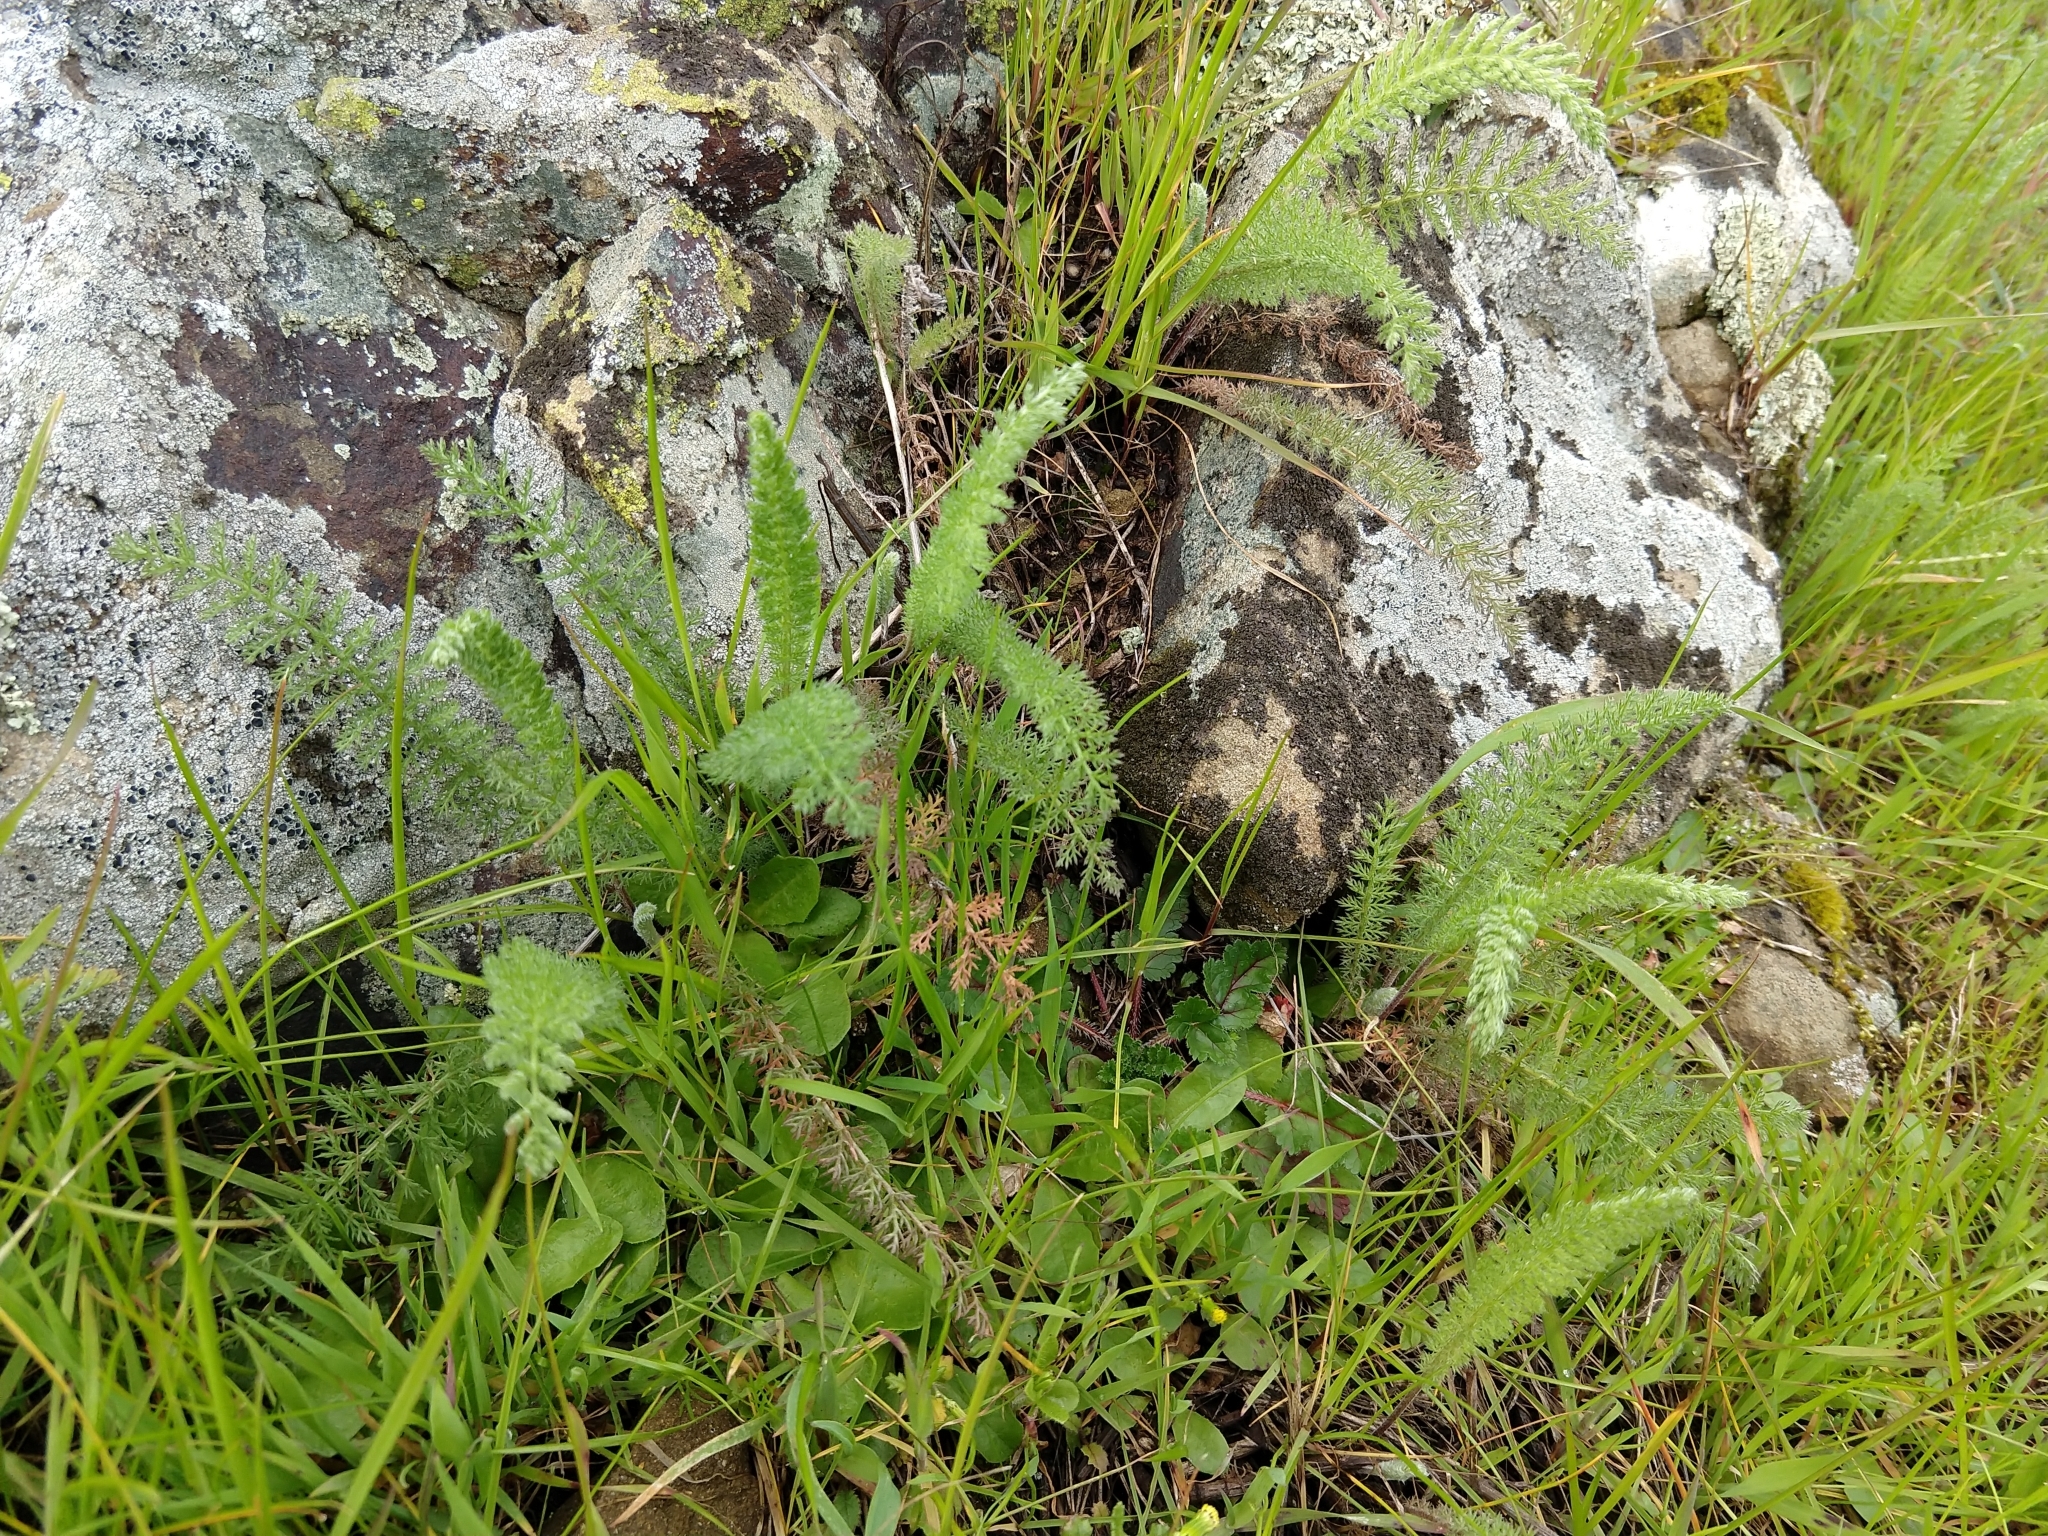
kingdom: Plantae
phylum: Tracheophyta
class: Magnoliopsida
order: Asterales
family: Asteraceae
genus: Achillea
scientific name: Achillea millefolium
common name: Yarrow
